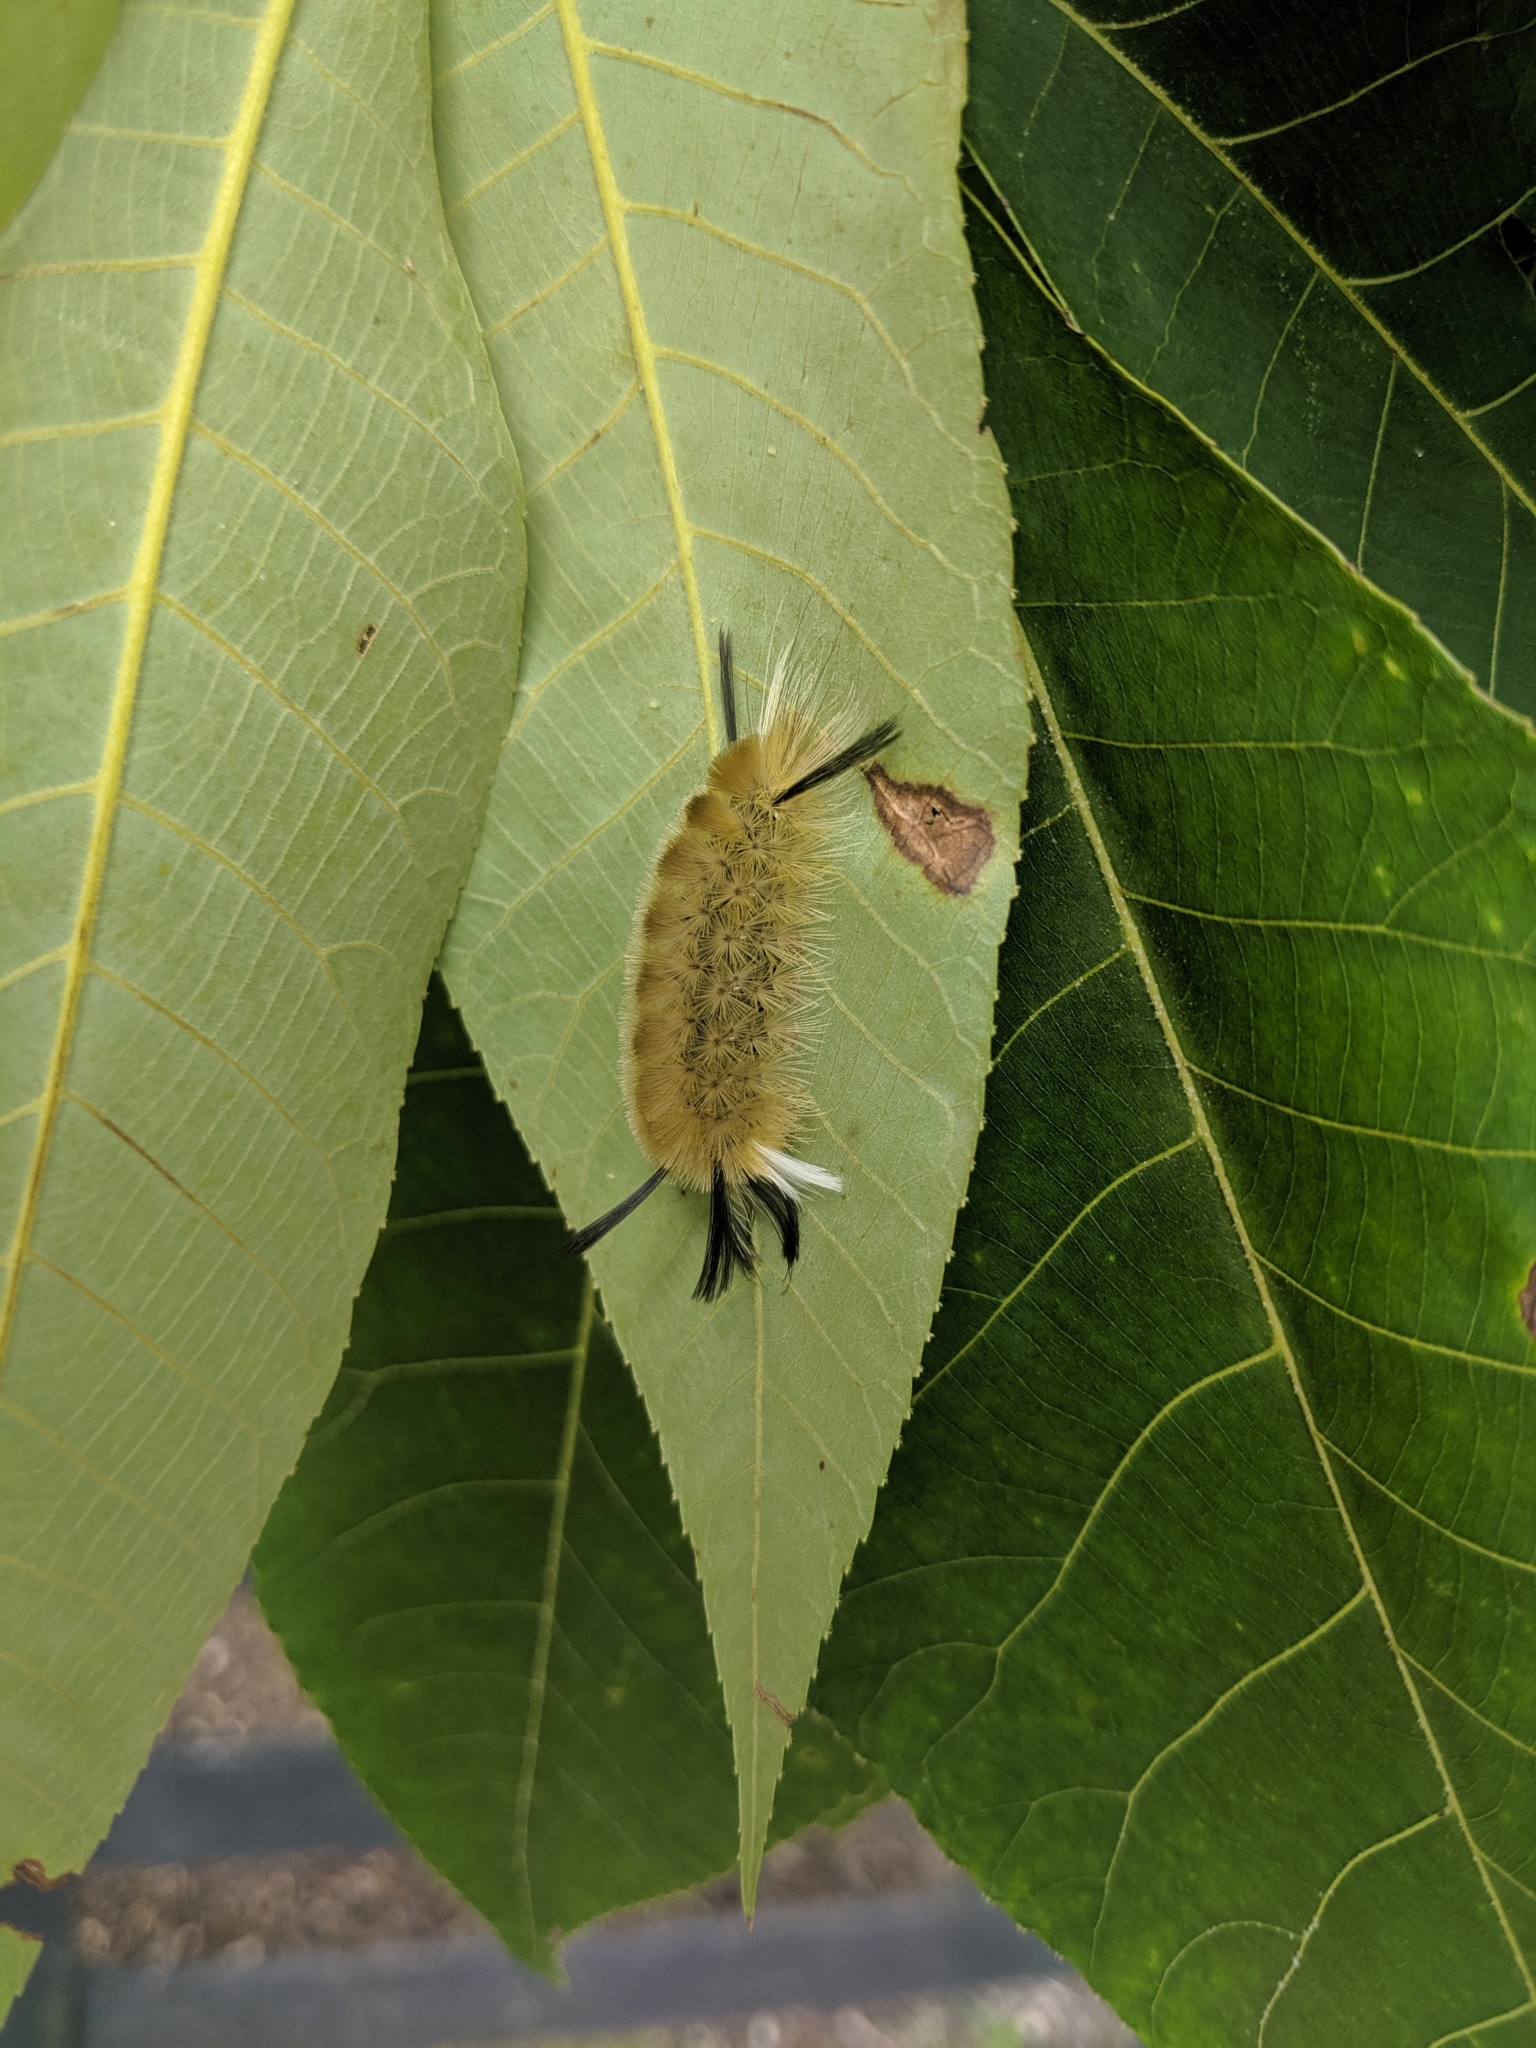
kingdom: Animalia
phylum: Arthropoda
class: Insecta
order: Lepidoptera
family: Erebidae
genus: Halysidota
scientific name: Halysidota tessellaris
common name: Banded tussock moth
